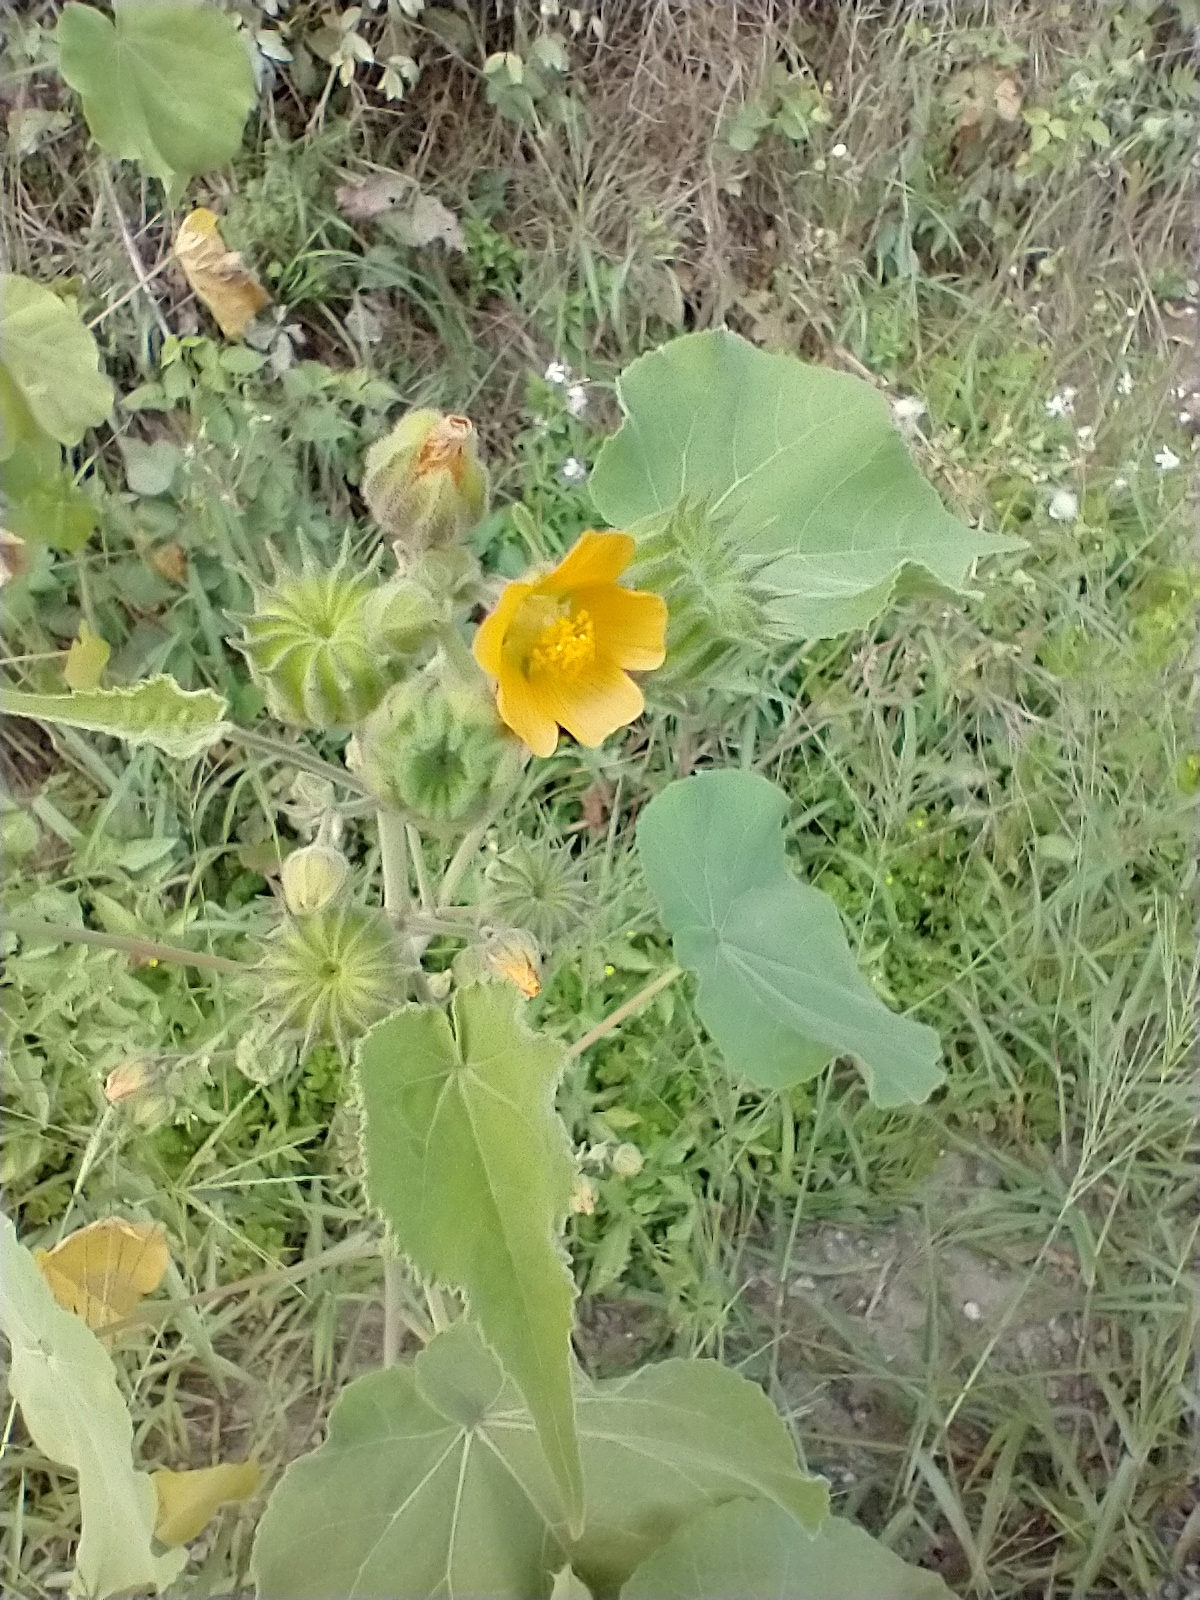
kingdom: Plantae
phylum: Tracheophyta
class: Magnoliopsida
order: Malvales
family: Malvaceae
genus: Abutilon
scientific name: Abutilon theophrasti
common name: Velvetleaf
